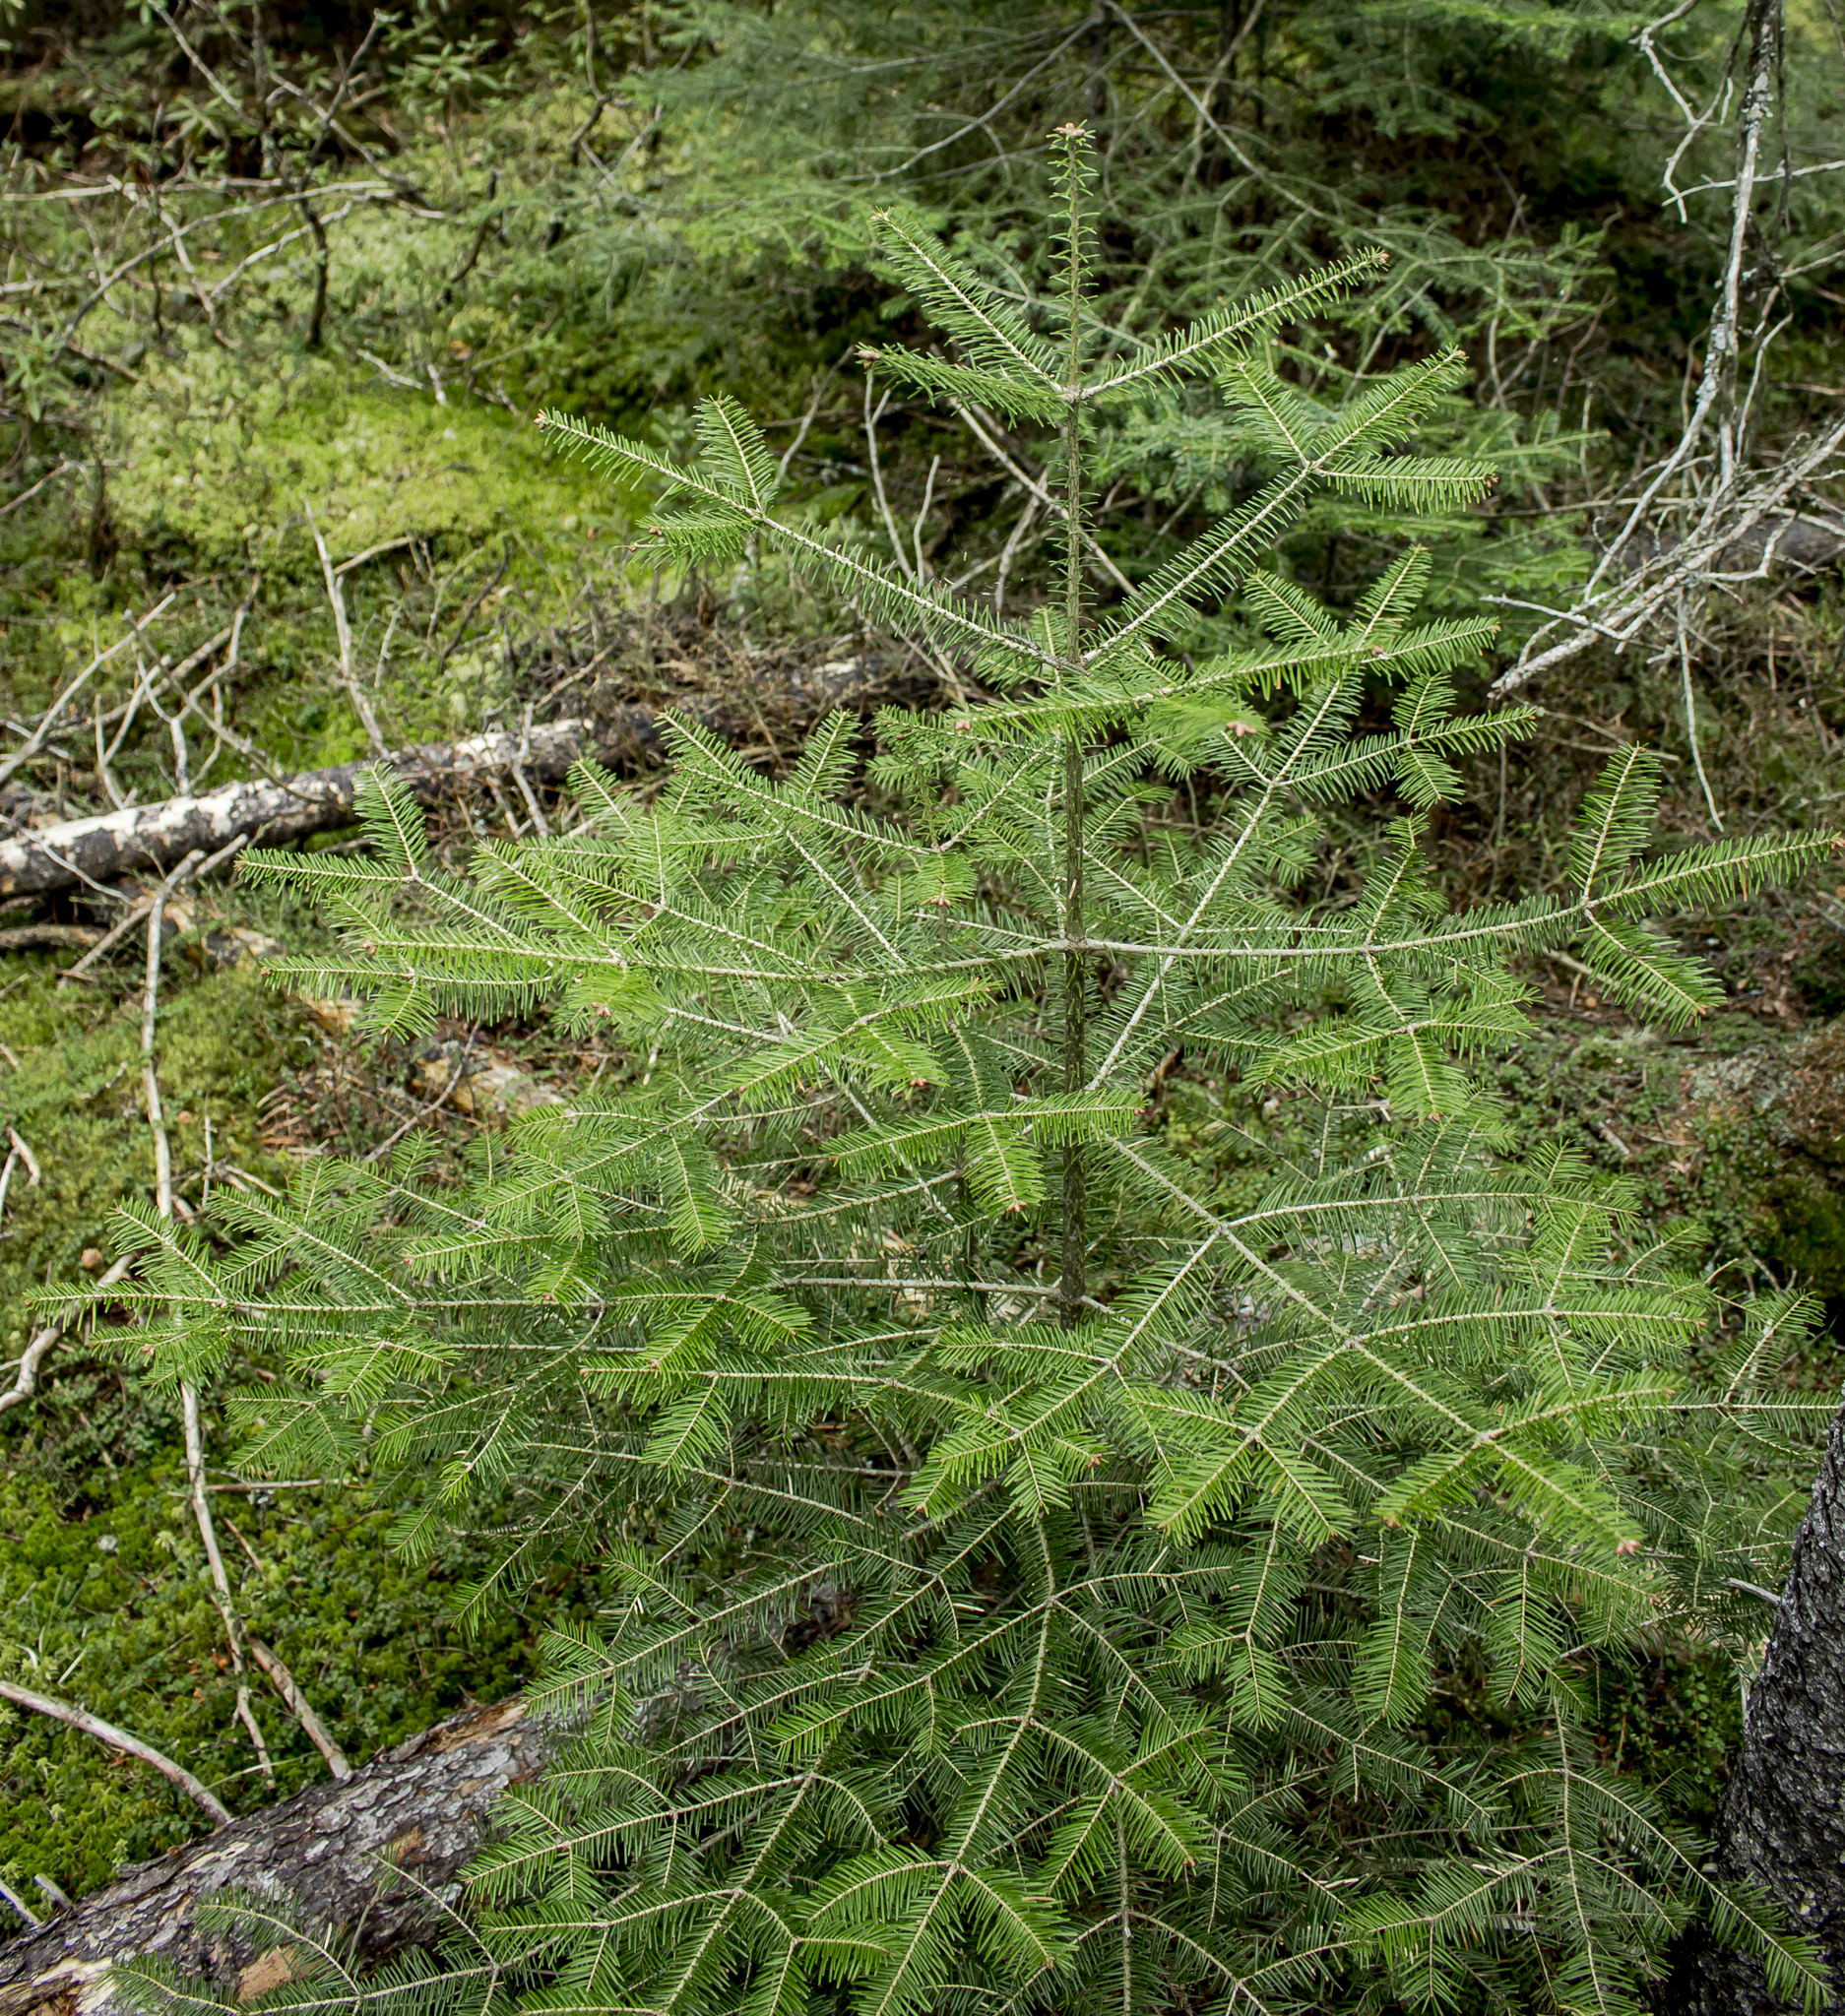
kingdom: Plantae
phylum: Tracheophyta
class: Pinopsida
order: Pinales
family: Pinaceae
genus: Abies
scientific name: Abies balsamea
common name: Balsam fir
